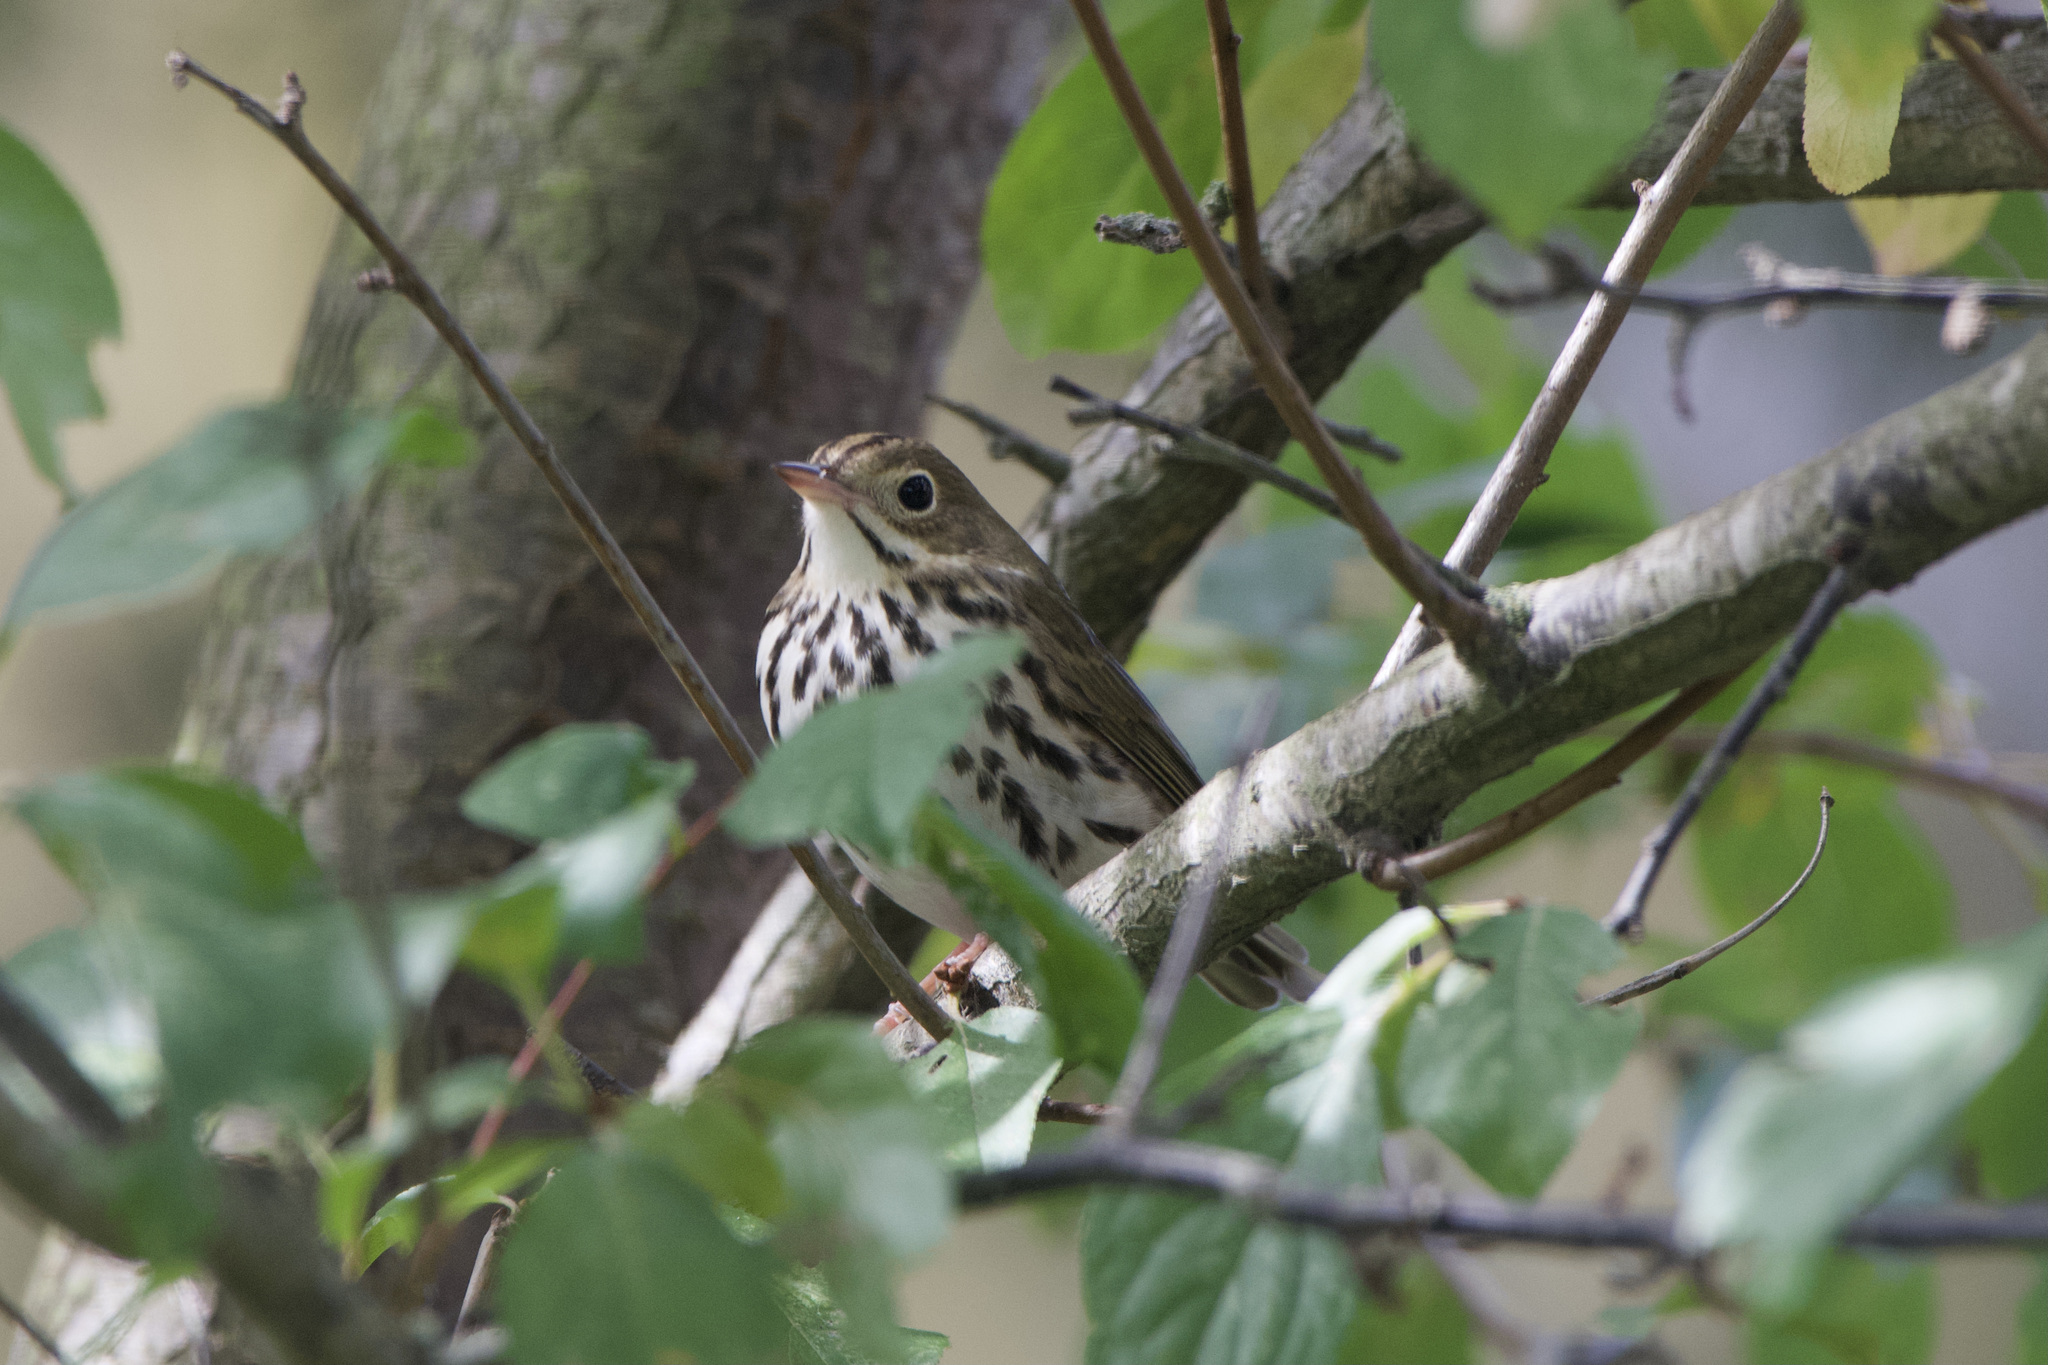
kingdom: Animalia
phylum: Chordata
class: Aves
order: Passeriformes
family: Parulidae
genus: Seiurus
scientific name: Seiurus aurocapilla
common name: Ovenbird
